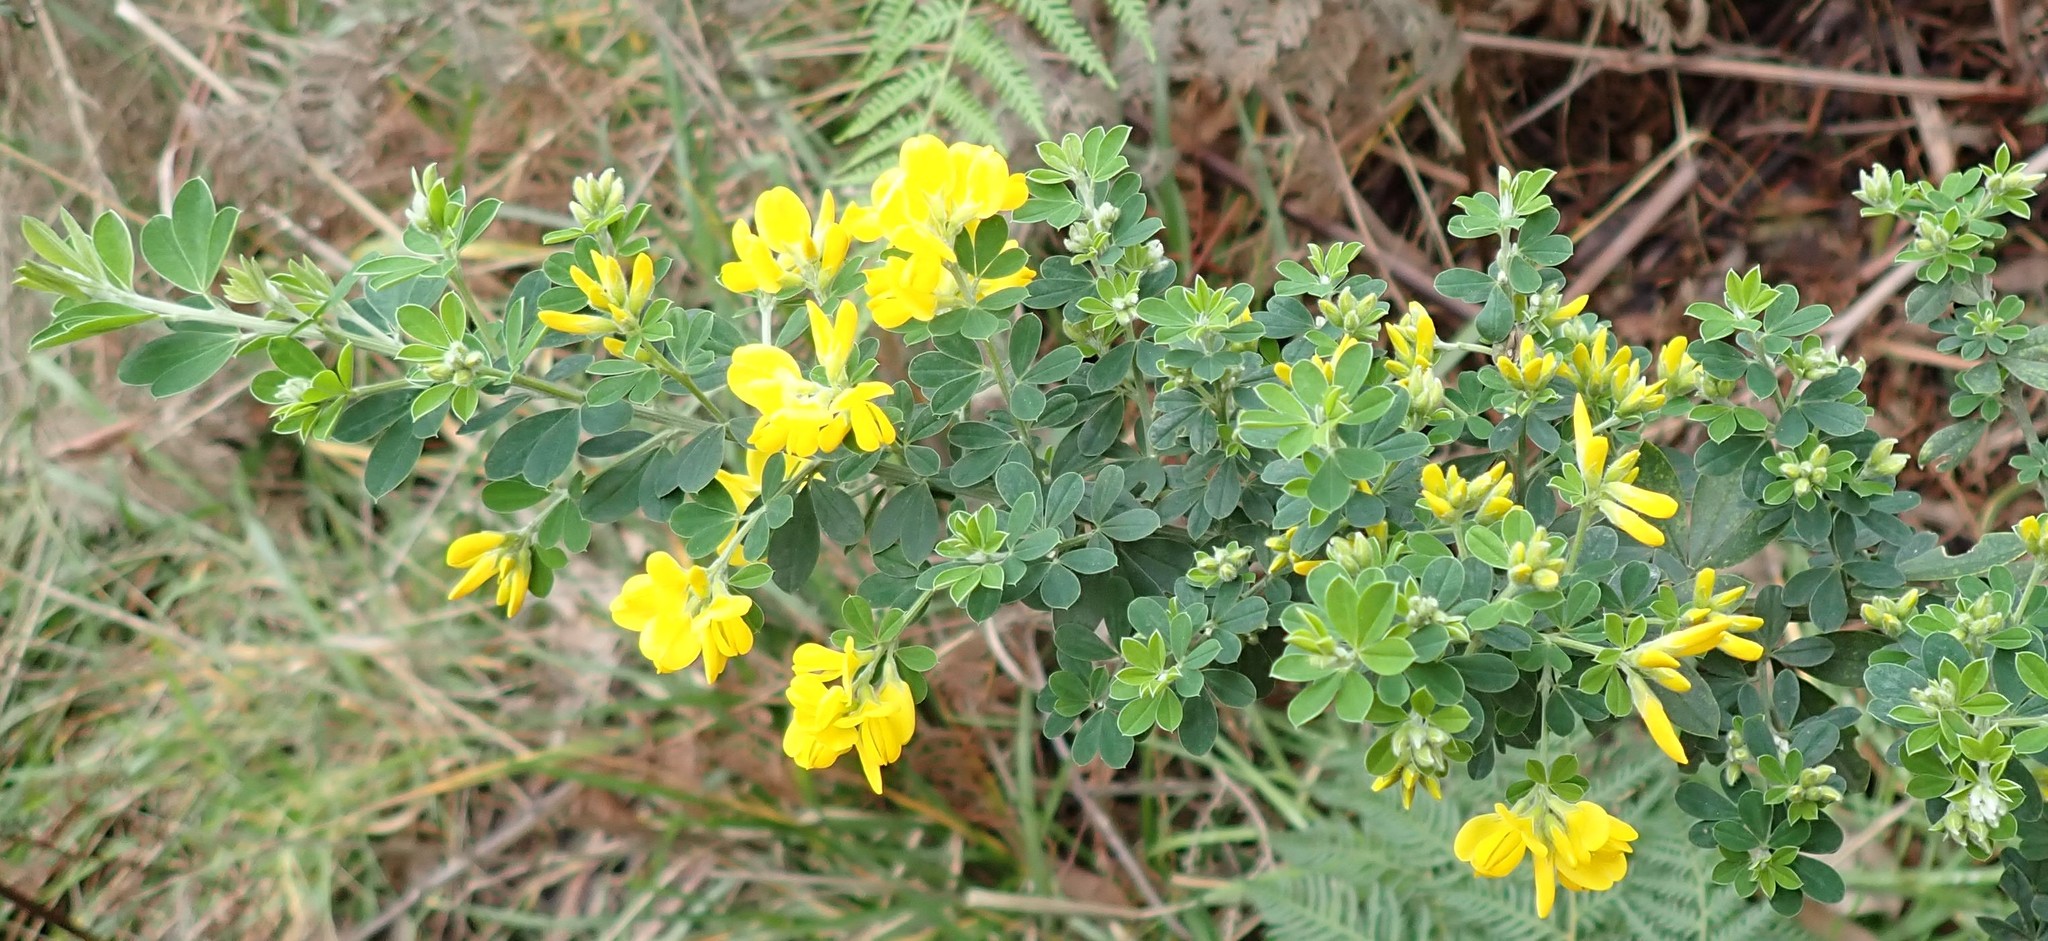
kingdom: Plantae
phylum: Tracheophyta
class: Magnoliopsida
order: Fabales
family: Fabaceae
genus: Genista
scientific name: Genista monspessulana
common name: Montpellier broom
